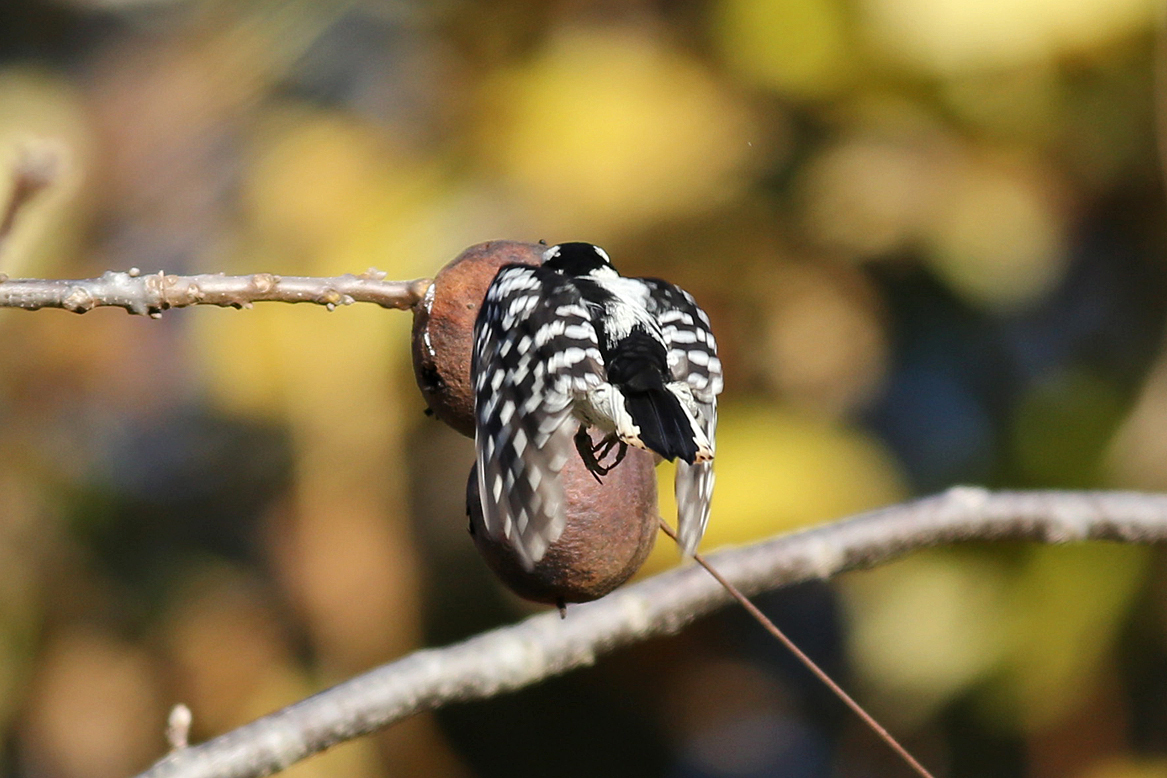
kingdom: Animalia
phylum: Chordata
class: Aves
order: Piciformes
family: Picidae
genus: Dryobates
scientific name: Dryobates pubescens
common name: Downy woodpecker
